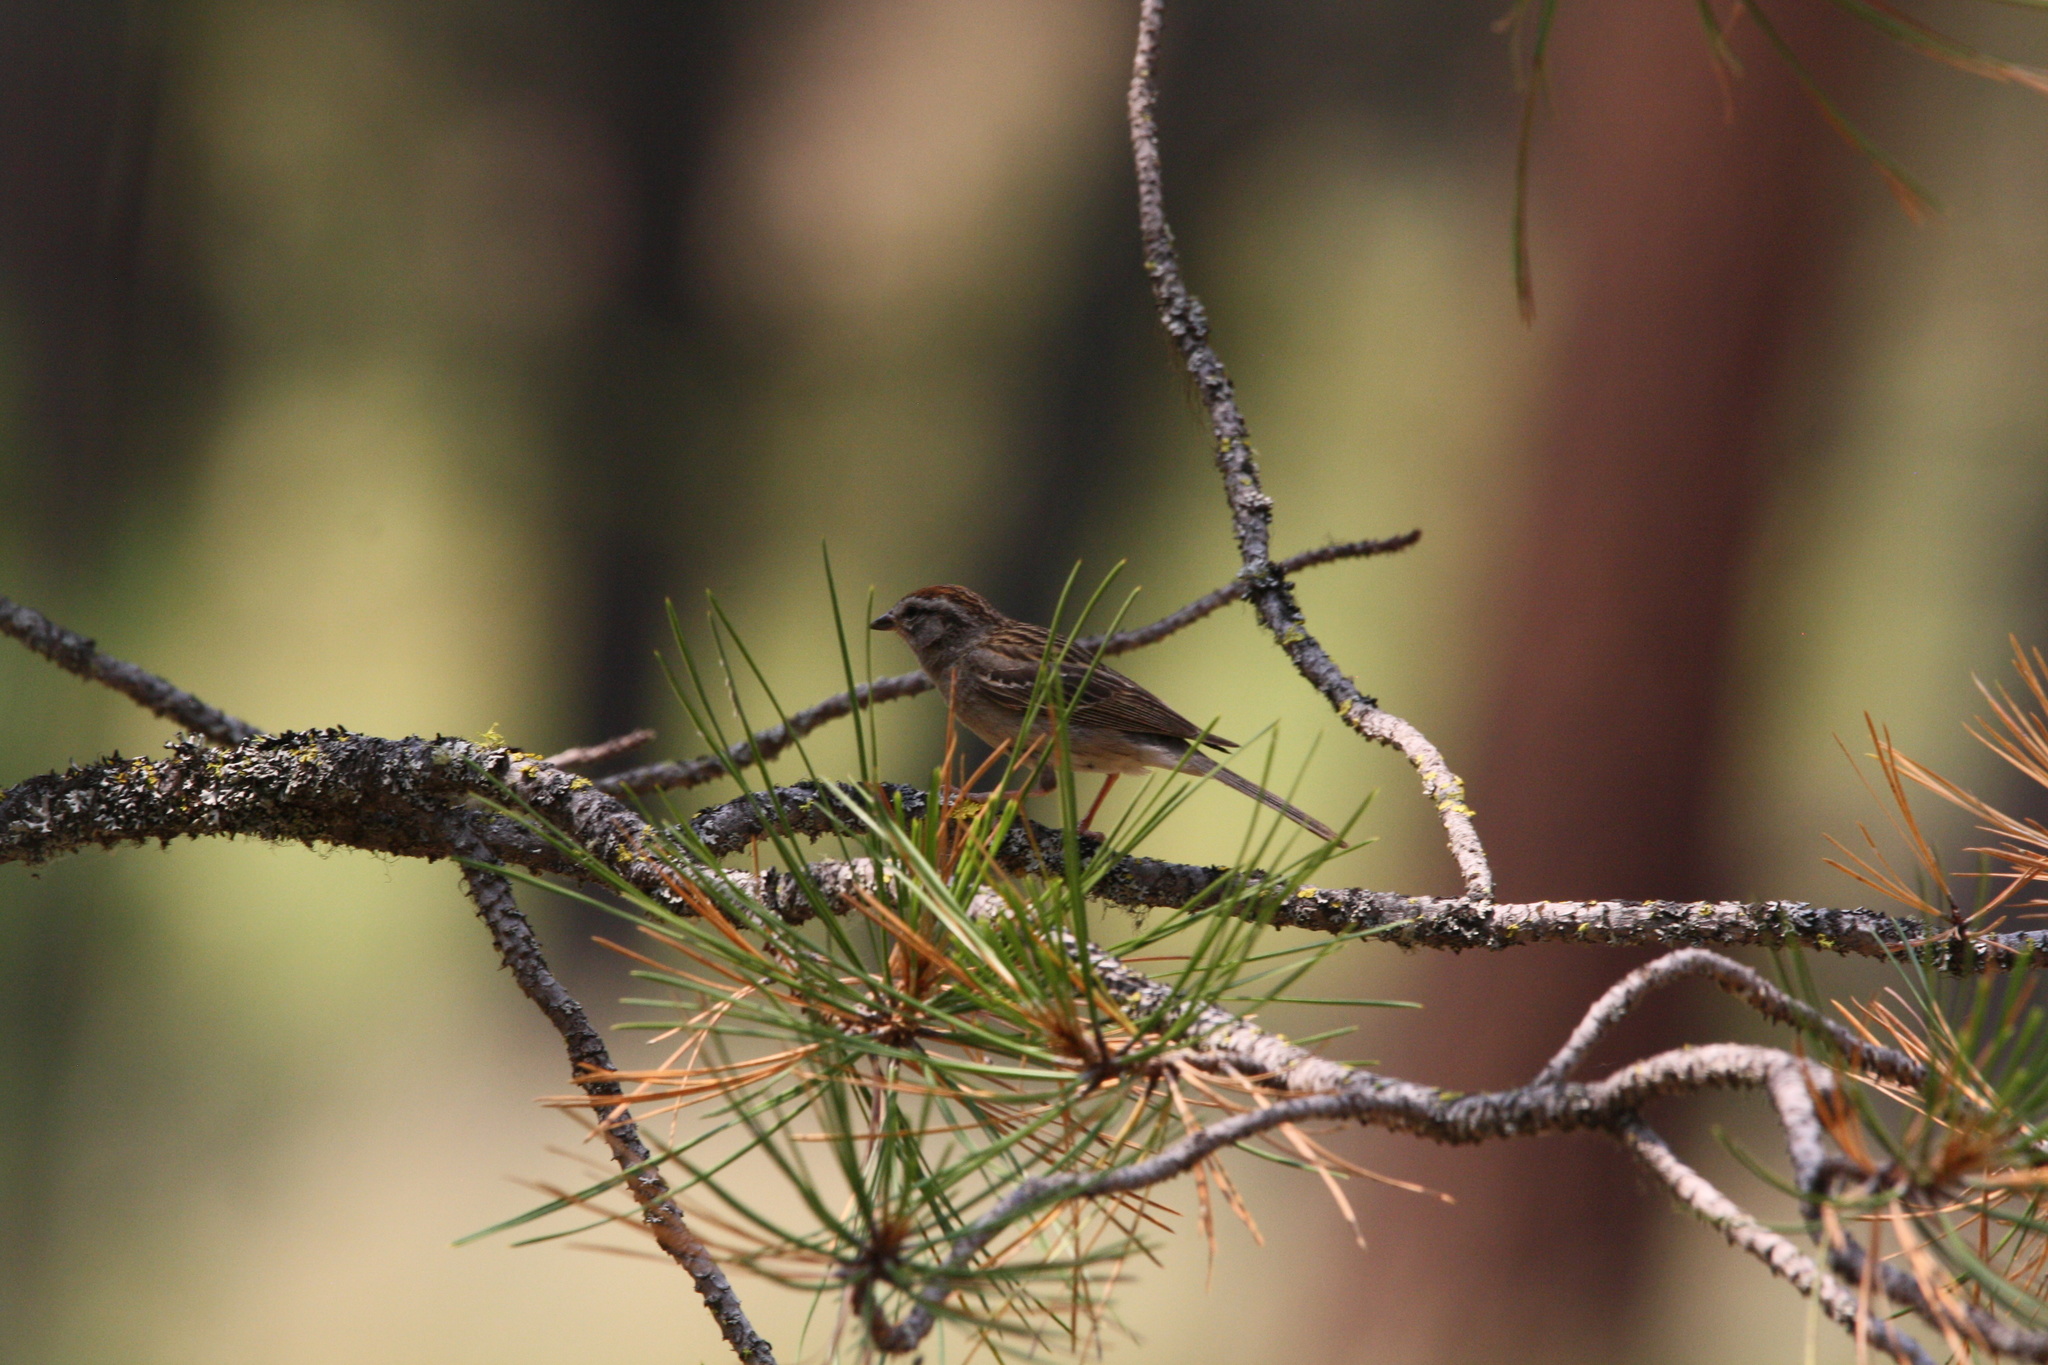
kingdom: Animalia
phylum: Chordata
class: Aves
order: Passeriformes
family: Passerellidae
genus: Spizella
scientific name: Spizella passerina
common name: Chipping sparrow
